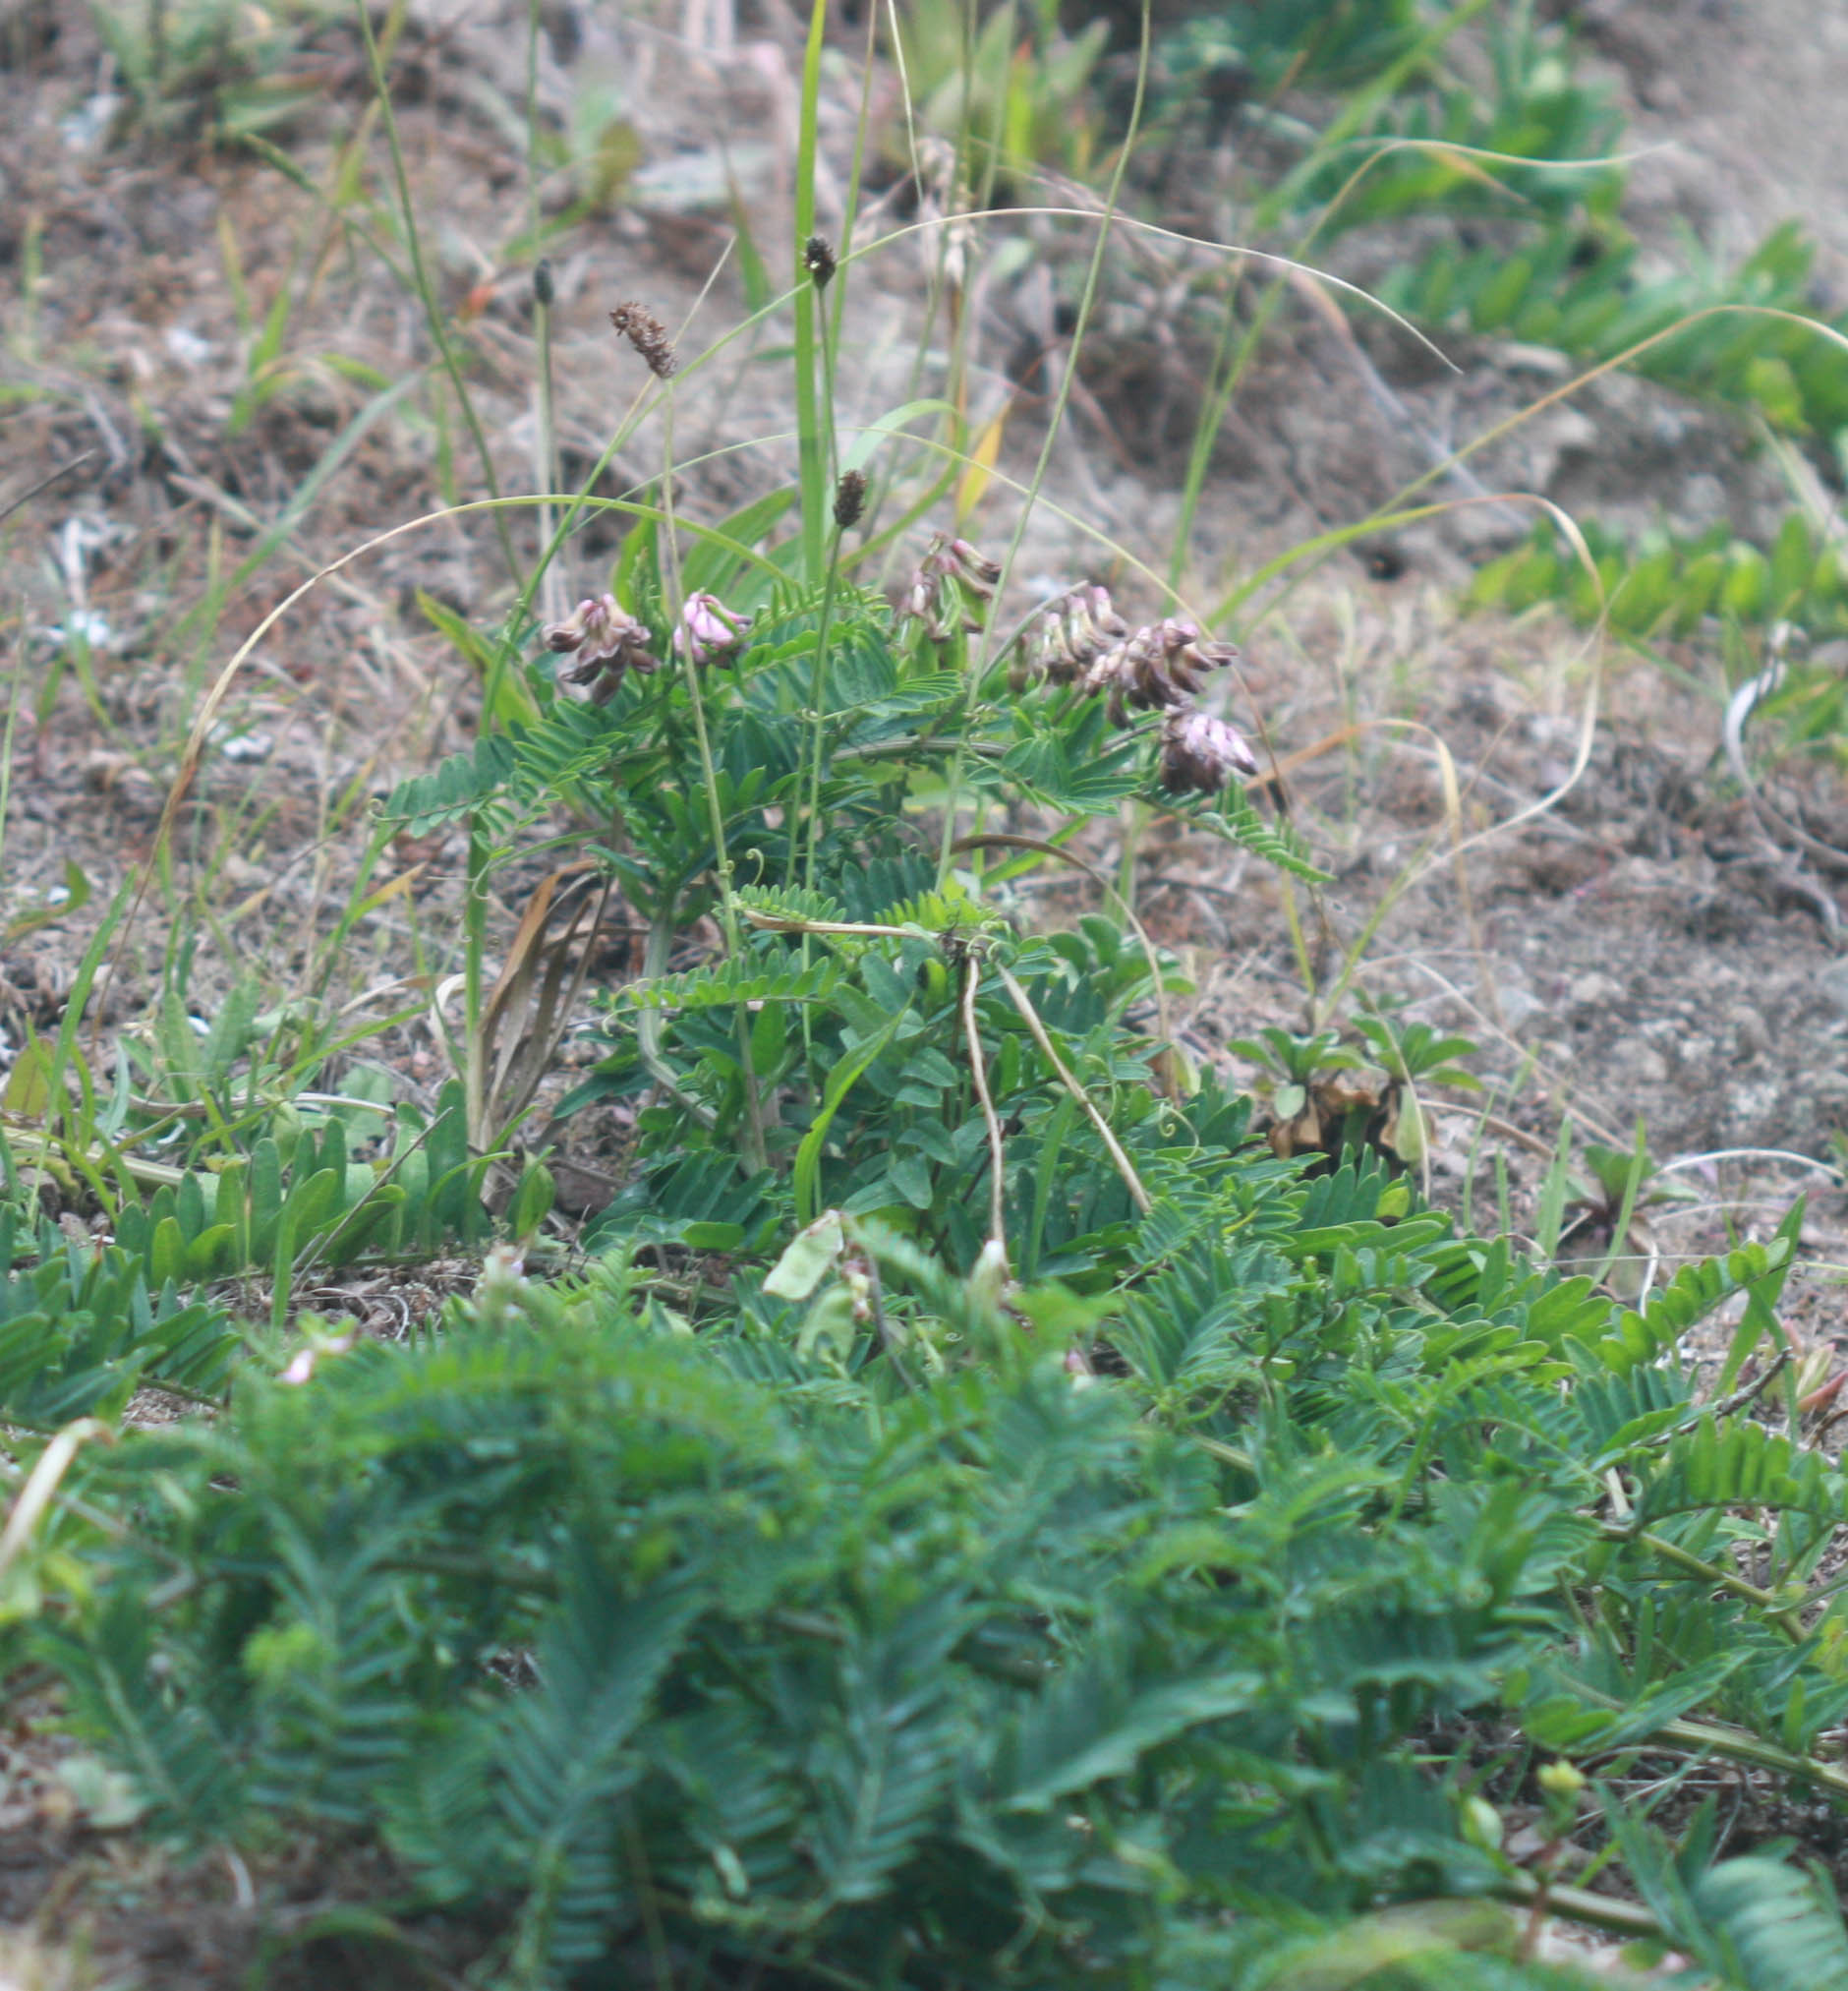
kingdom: Plantae
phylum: Tracheophyta
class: Magnoliopsida
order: Fabales
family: Fabaceae
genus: Vicia
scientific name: Vicia
